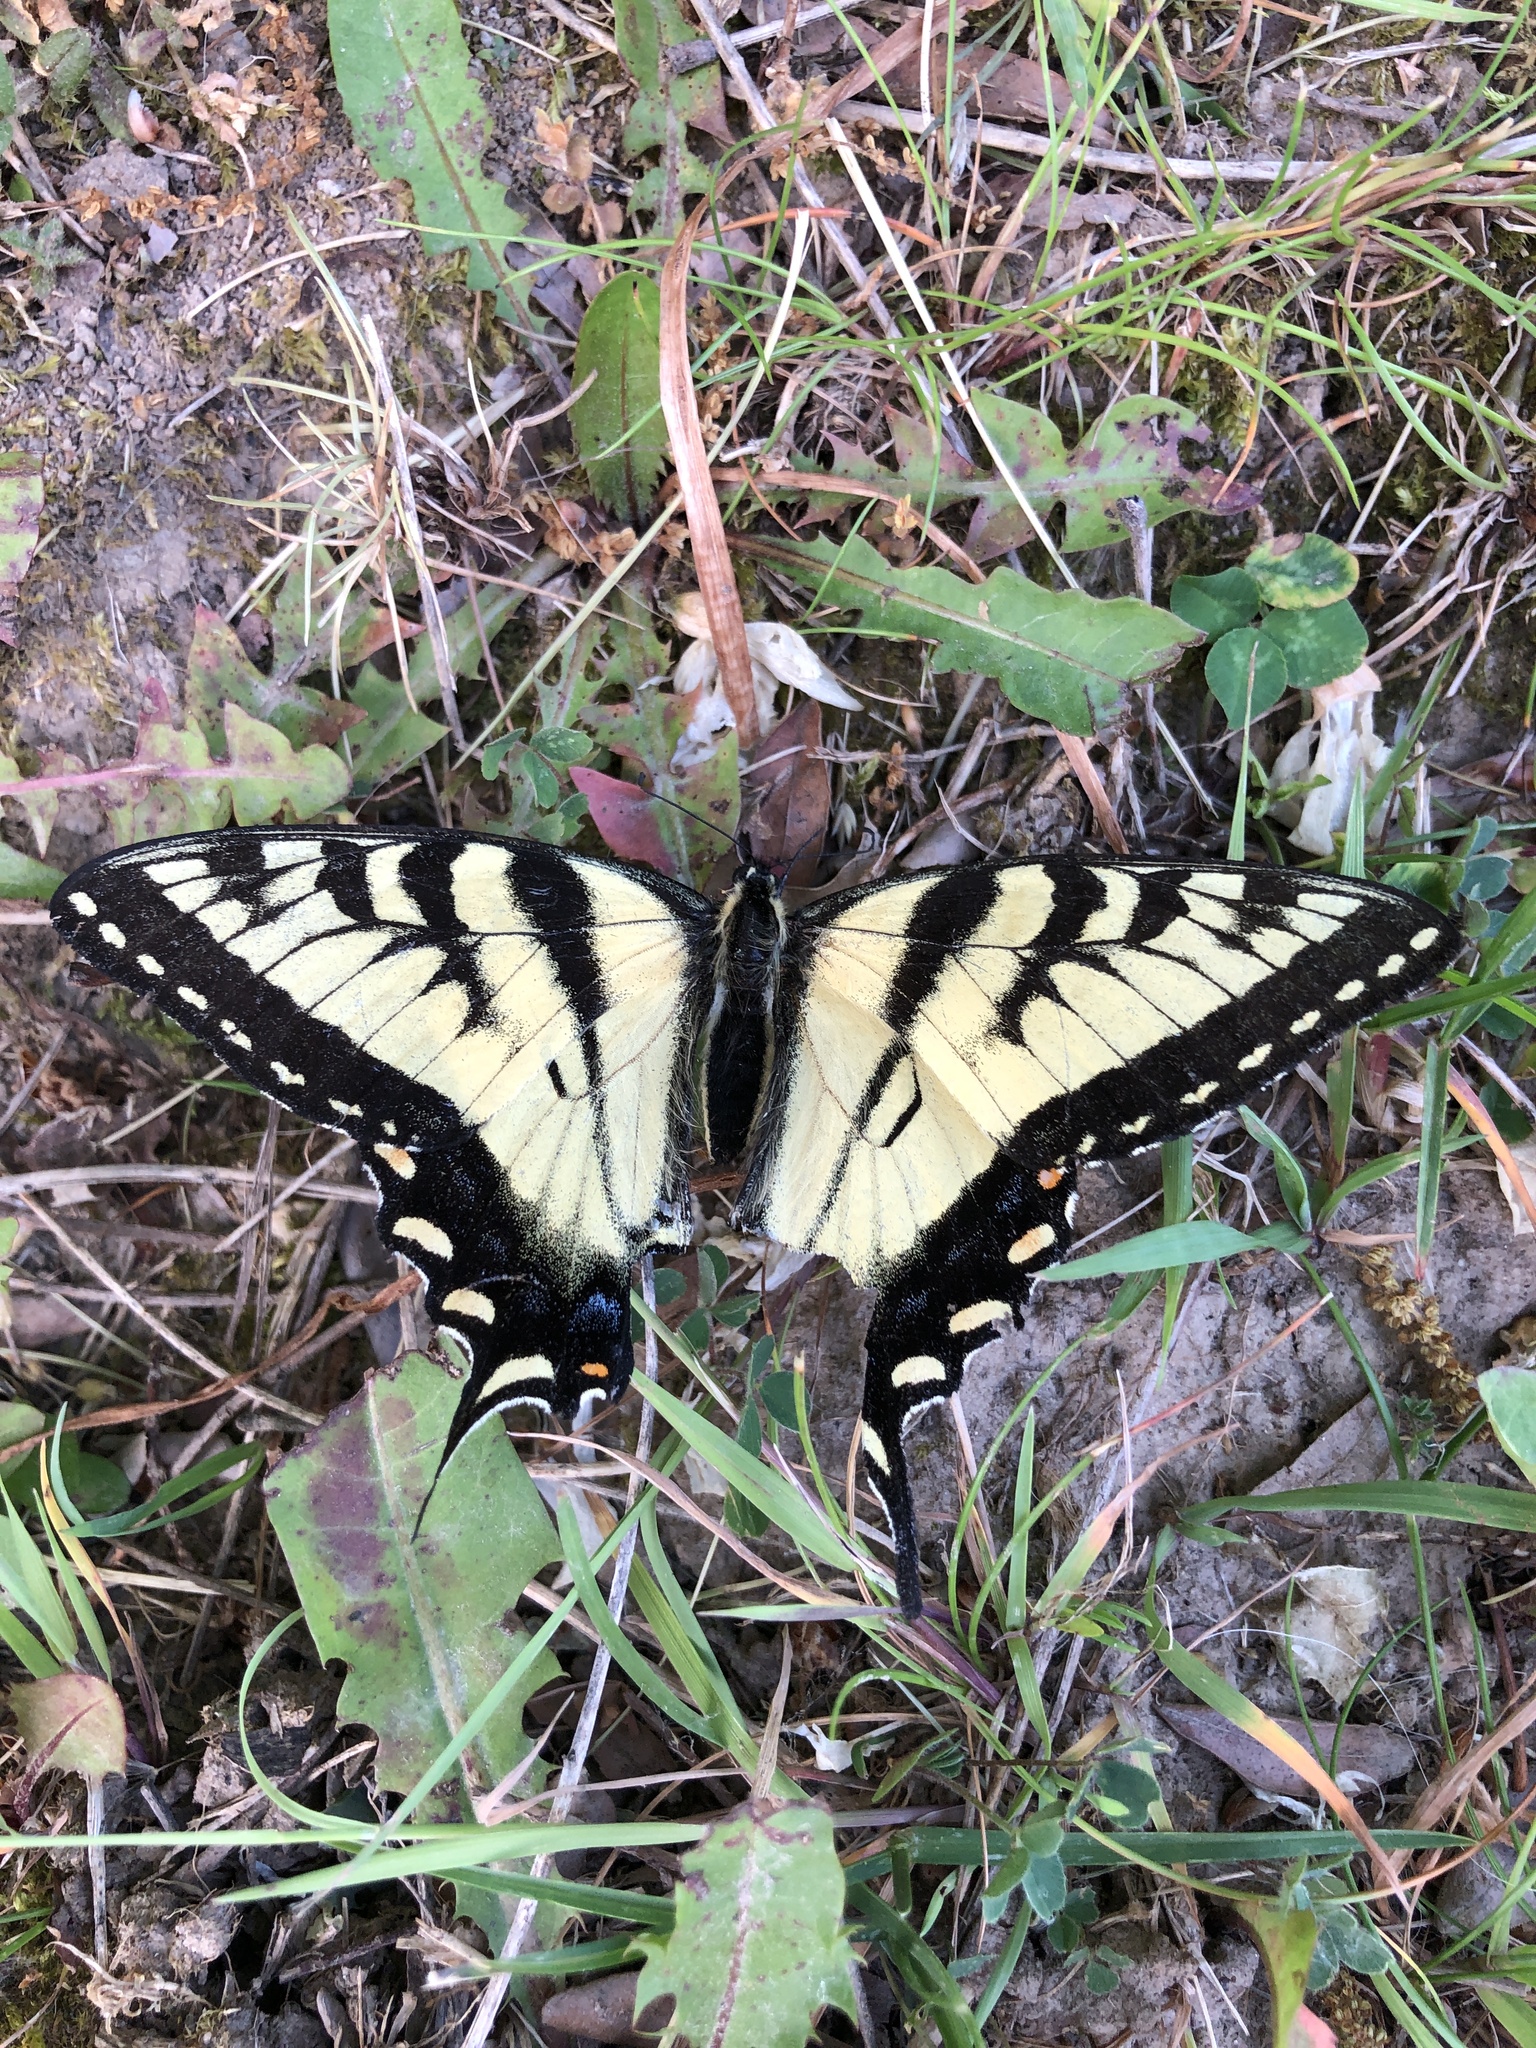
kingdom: Animalia
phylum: Arthropoda
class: Insecta
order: Lepidoptera
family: Papilionidae
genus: Papilio
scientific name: Papilio glaucus
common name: Tiger swallowtail
